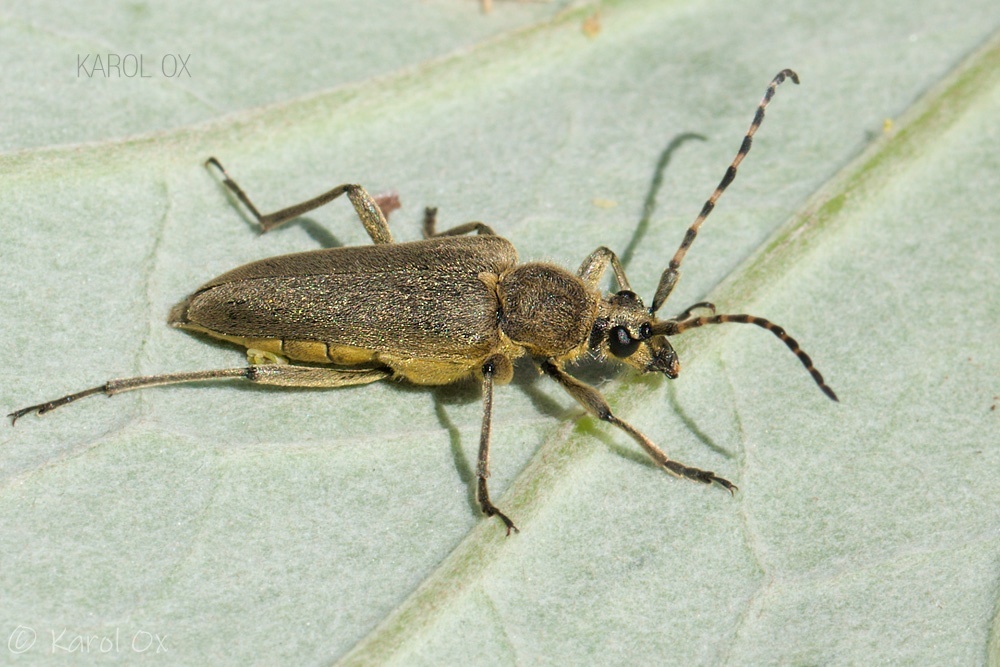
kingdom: Animalia
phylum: Arthropoda
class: Insecta
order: Coleoptera
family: Cerambycidae
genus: Lepturobosca
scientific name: Lepturobosca virens
